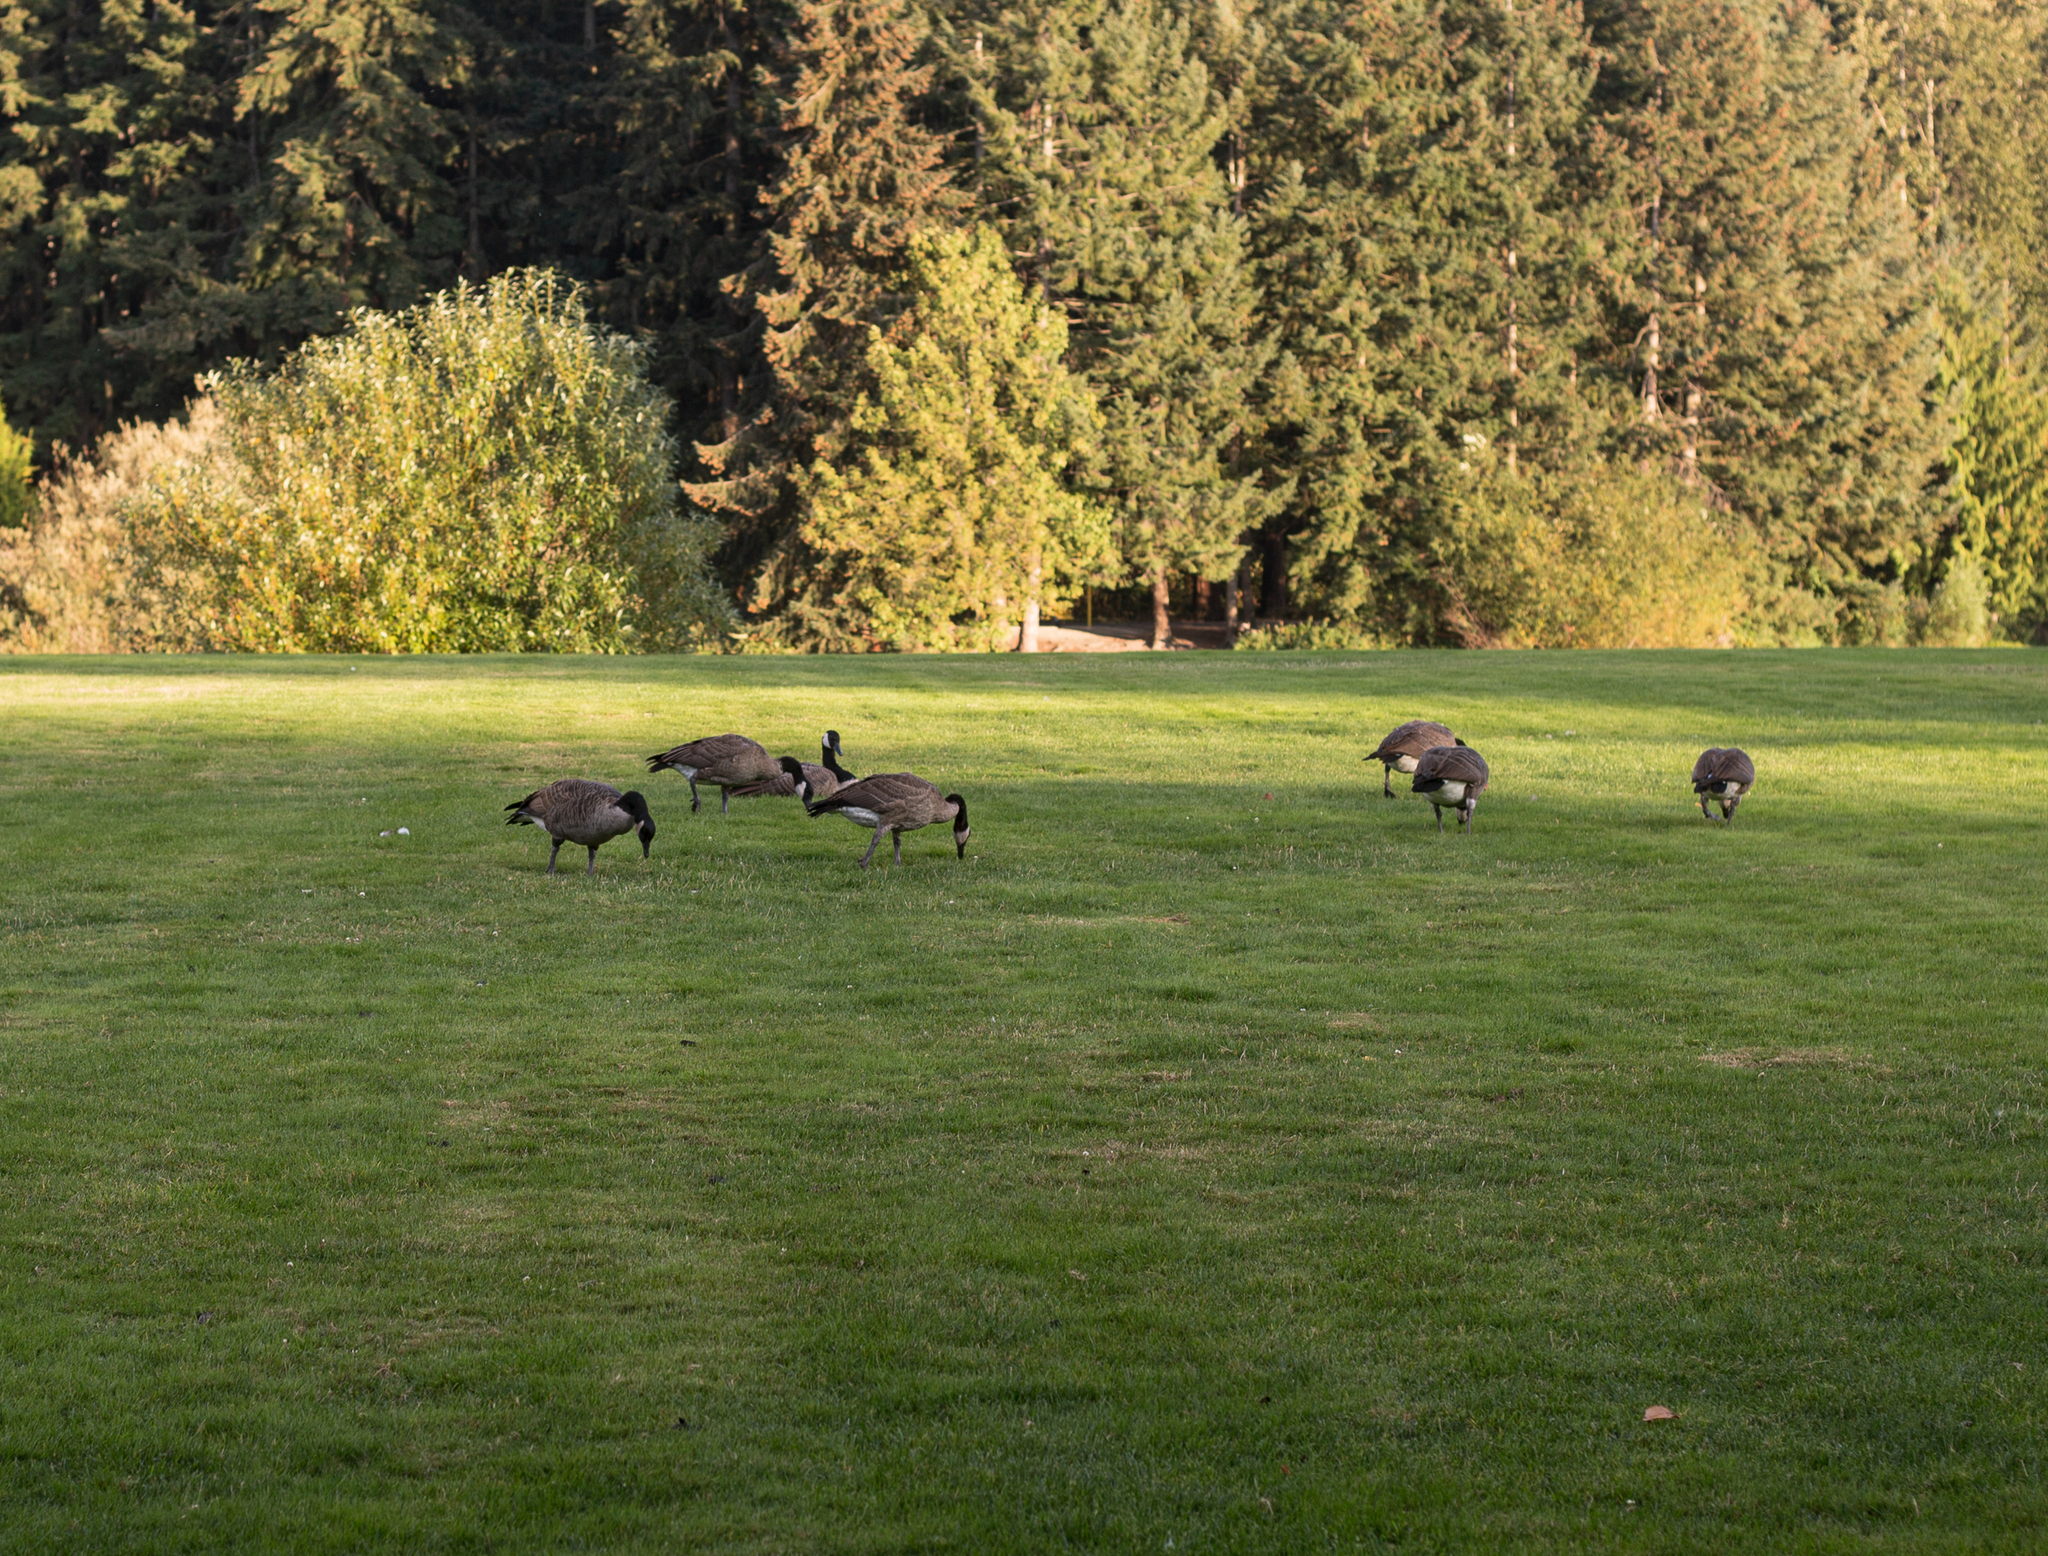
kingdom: Animalia
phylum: Chordata
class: Aves
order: Anseriformes
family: Anatidae
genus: Branta
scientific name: Branta canadensis
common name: Canada goose
